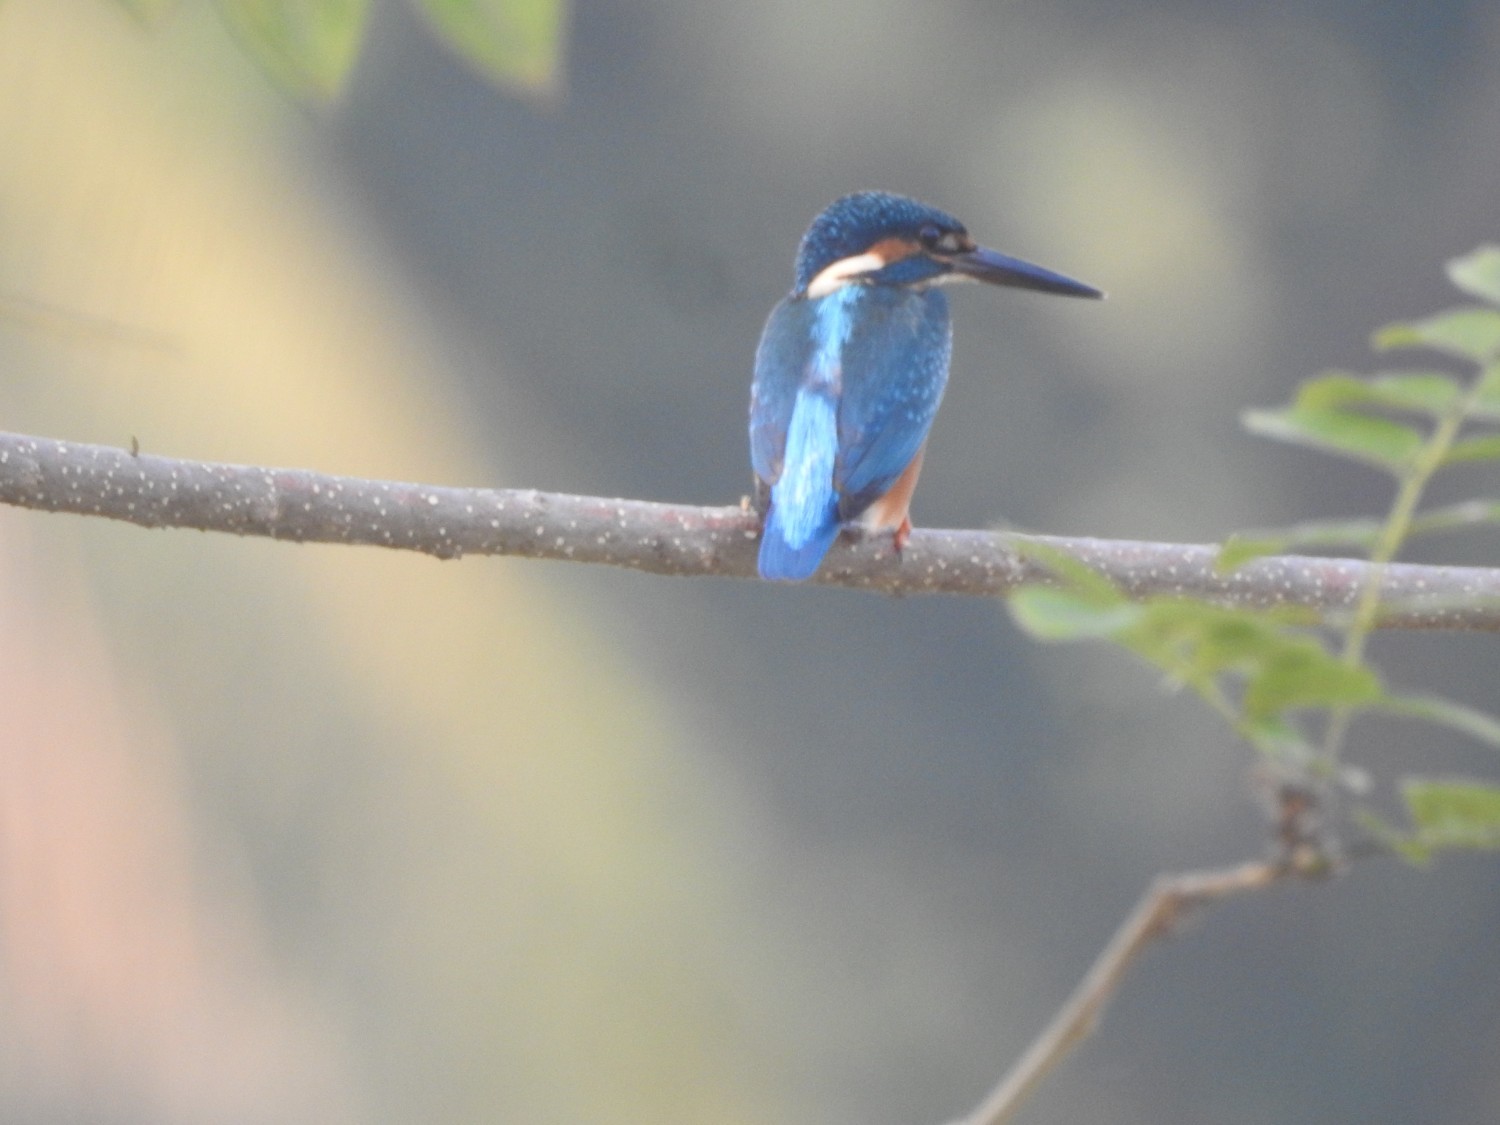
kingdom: Animalia
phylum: Chordata
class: Aves
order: Coraciiformes
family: Alcedinidae
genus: Alcedo
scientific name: Alcedo atthis
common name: Common kingfisher
